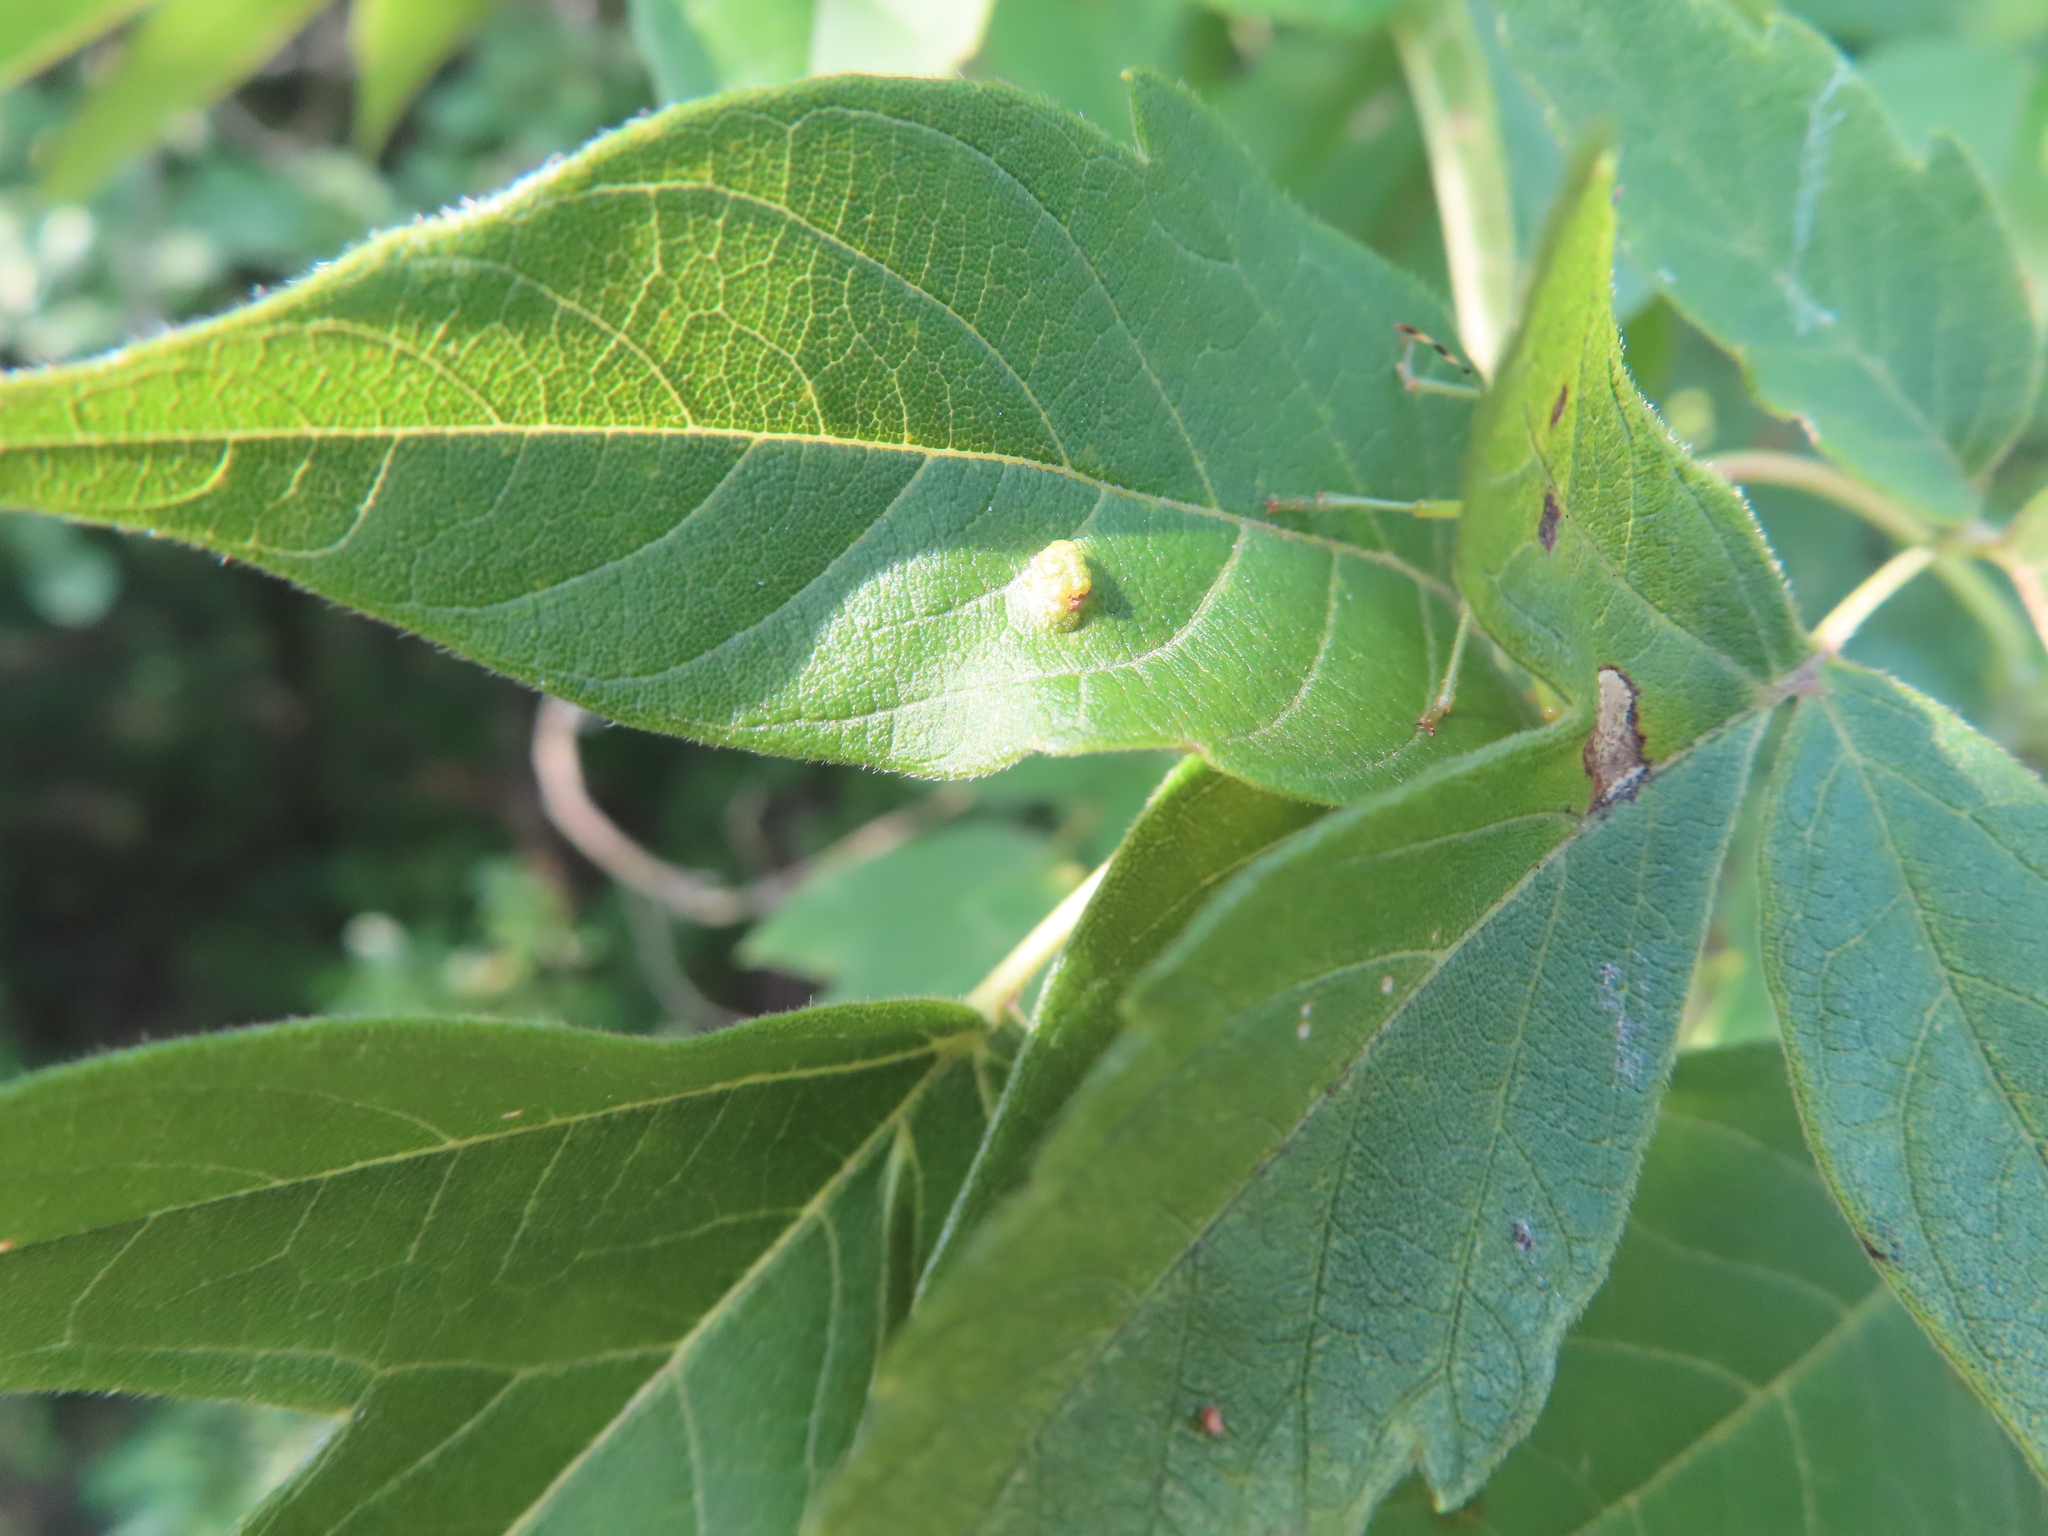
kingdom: Animalia
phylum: Arthropoda
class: Arachnida
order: Trombidiformes
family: Eriophyidae
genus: Aceria
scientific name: Aceria
